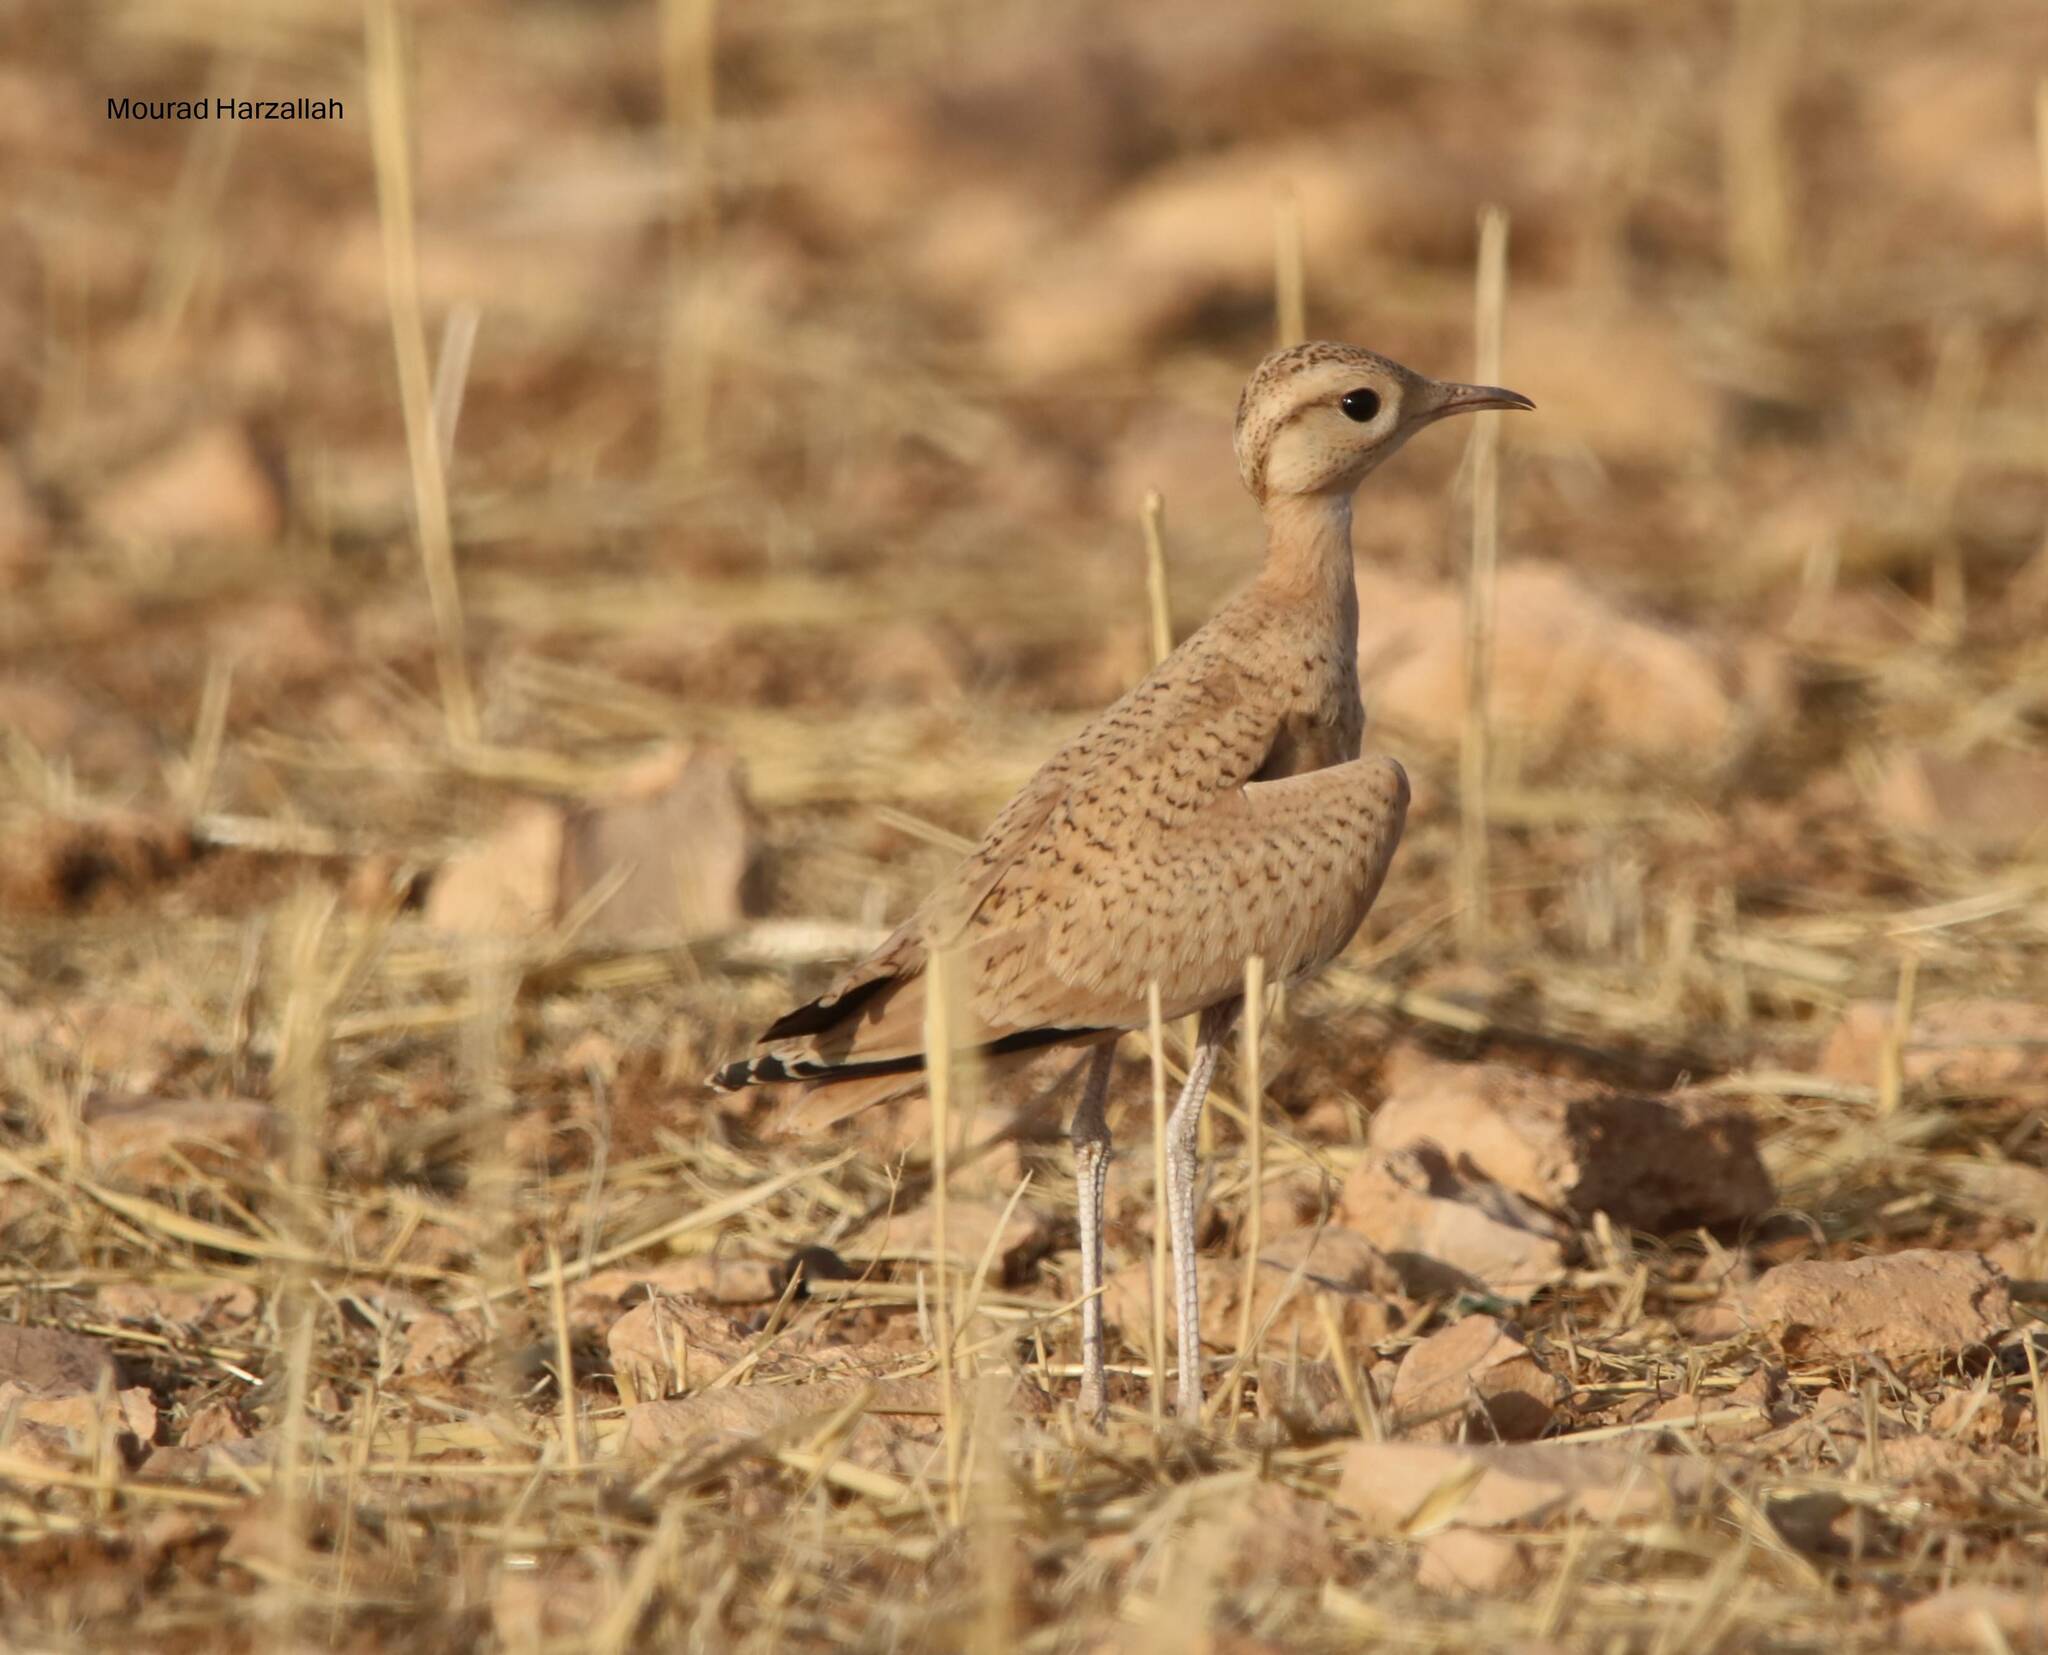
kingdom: Animalia
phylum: Chordata
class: Aves
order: Charadriiformes
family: Glareolidae
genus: Cursorius
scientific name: Cursorius cursor
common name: Cream-colored courser
